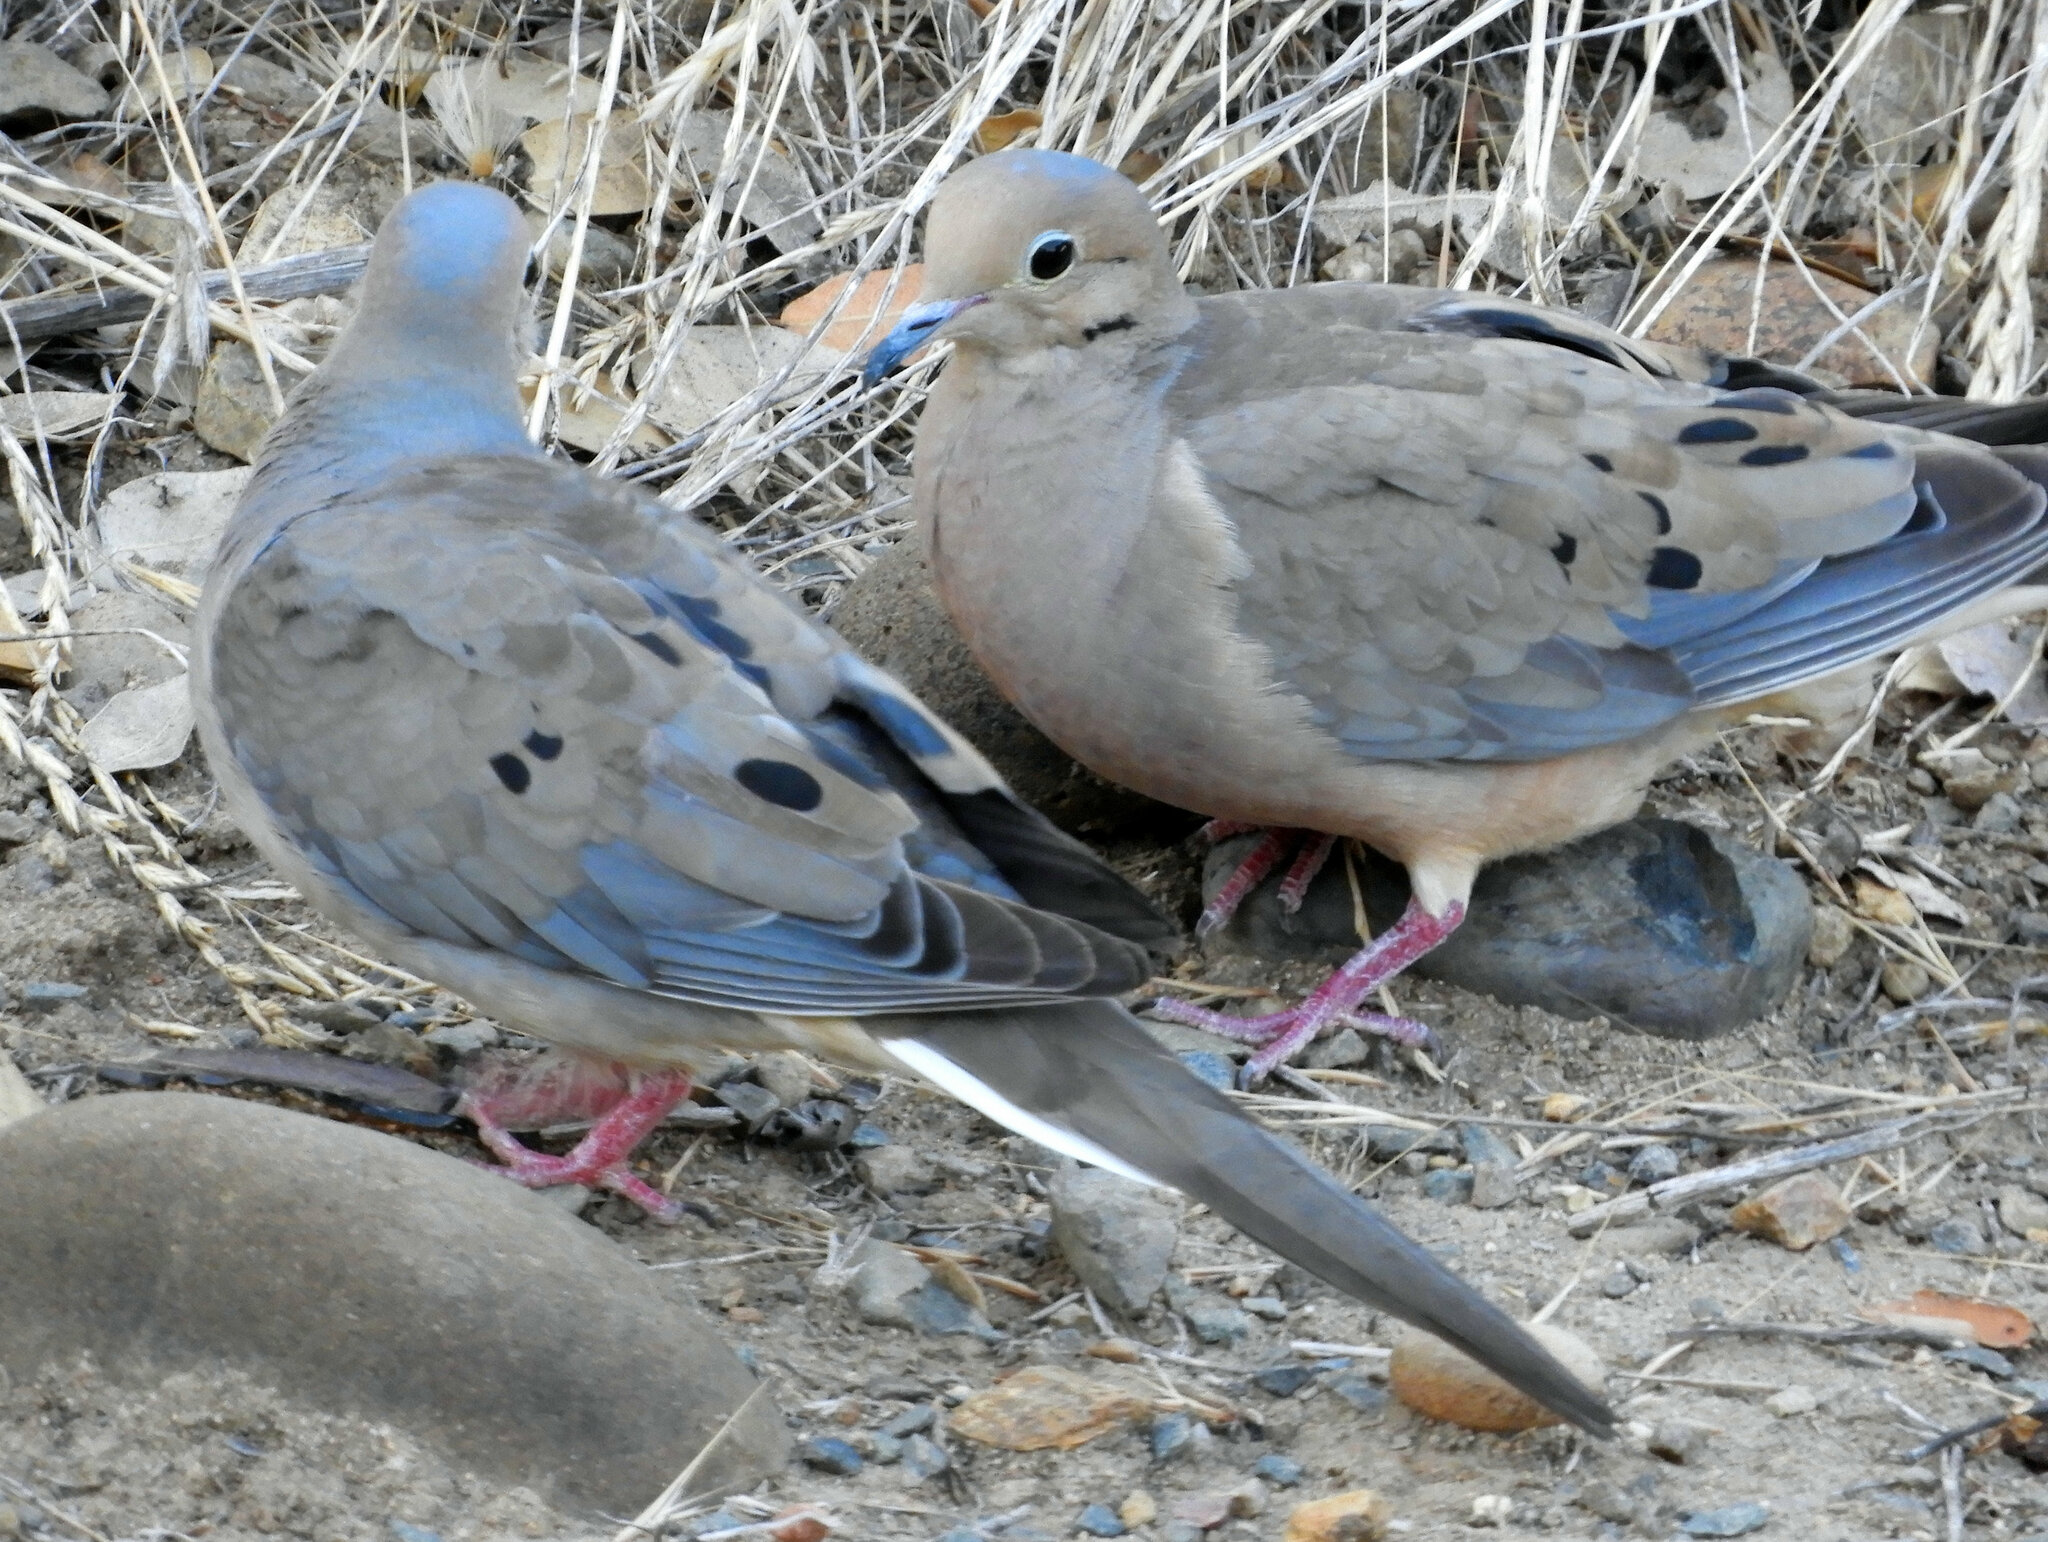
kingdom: Animalia
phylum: Chordata
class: Aves
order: Columbiformes
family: Columbidae
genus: Zenaida
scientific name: Zenaida macroura
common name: Mourning dove
